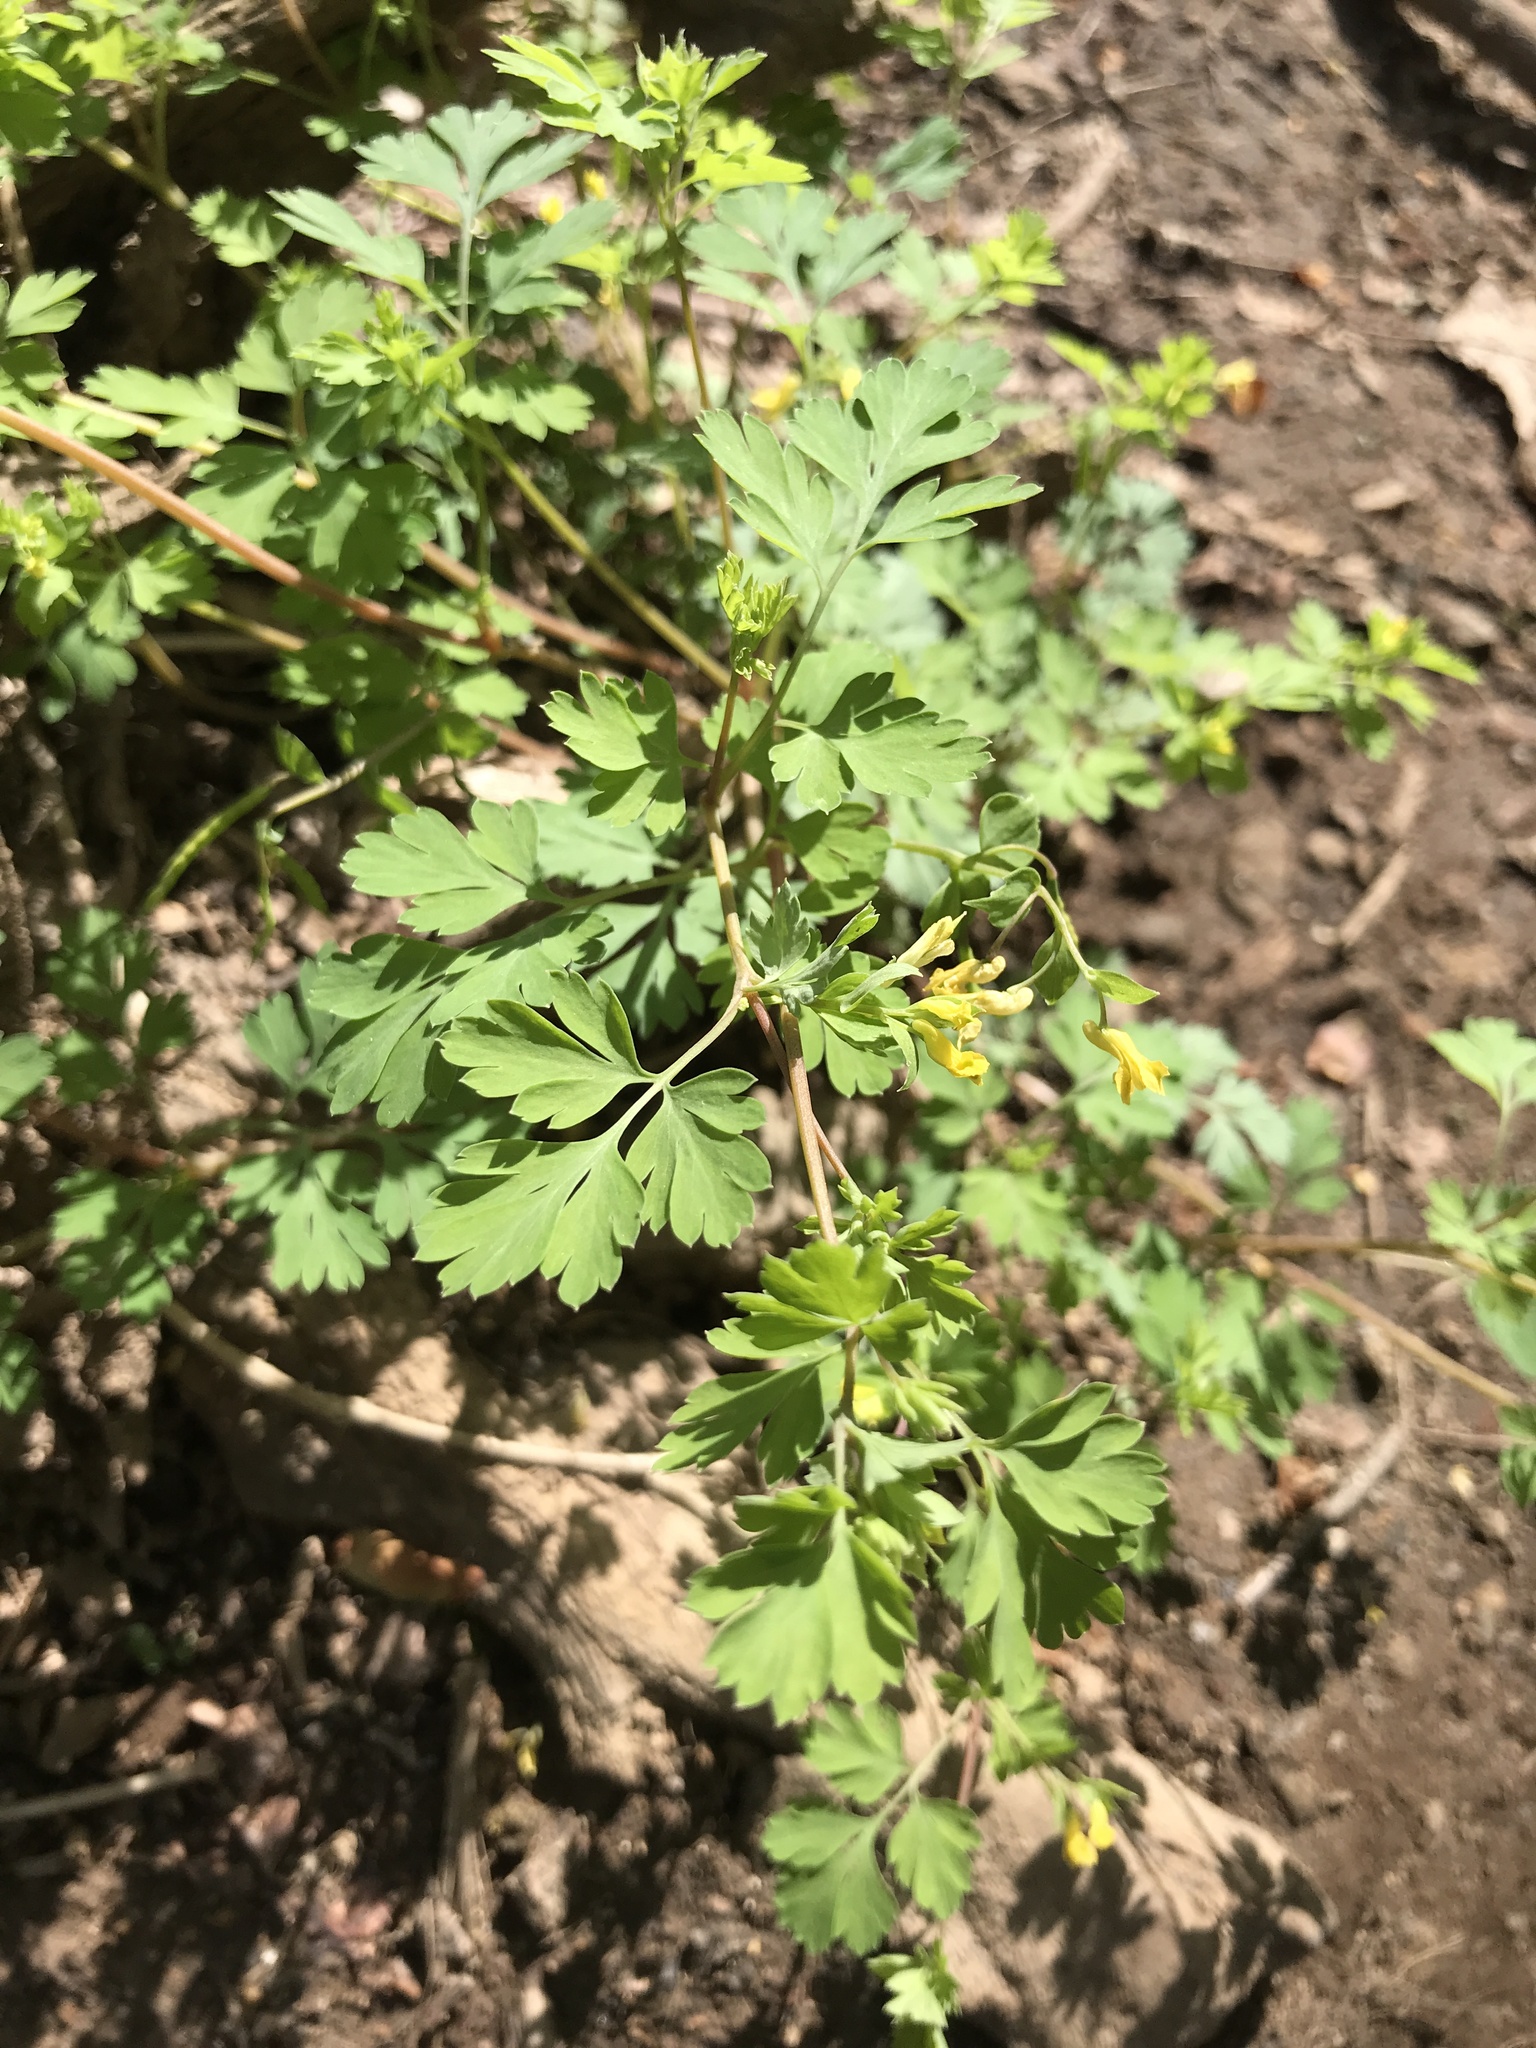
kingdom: Plantae
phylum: Tracheophyta
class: Magnoliopsida
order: Ranunculales
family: Papaveraceae
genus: Corydalis
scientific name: Corydalis flavula
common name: Yellow corydalis
